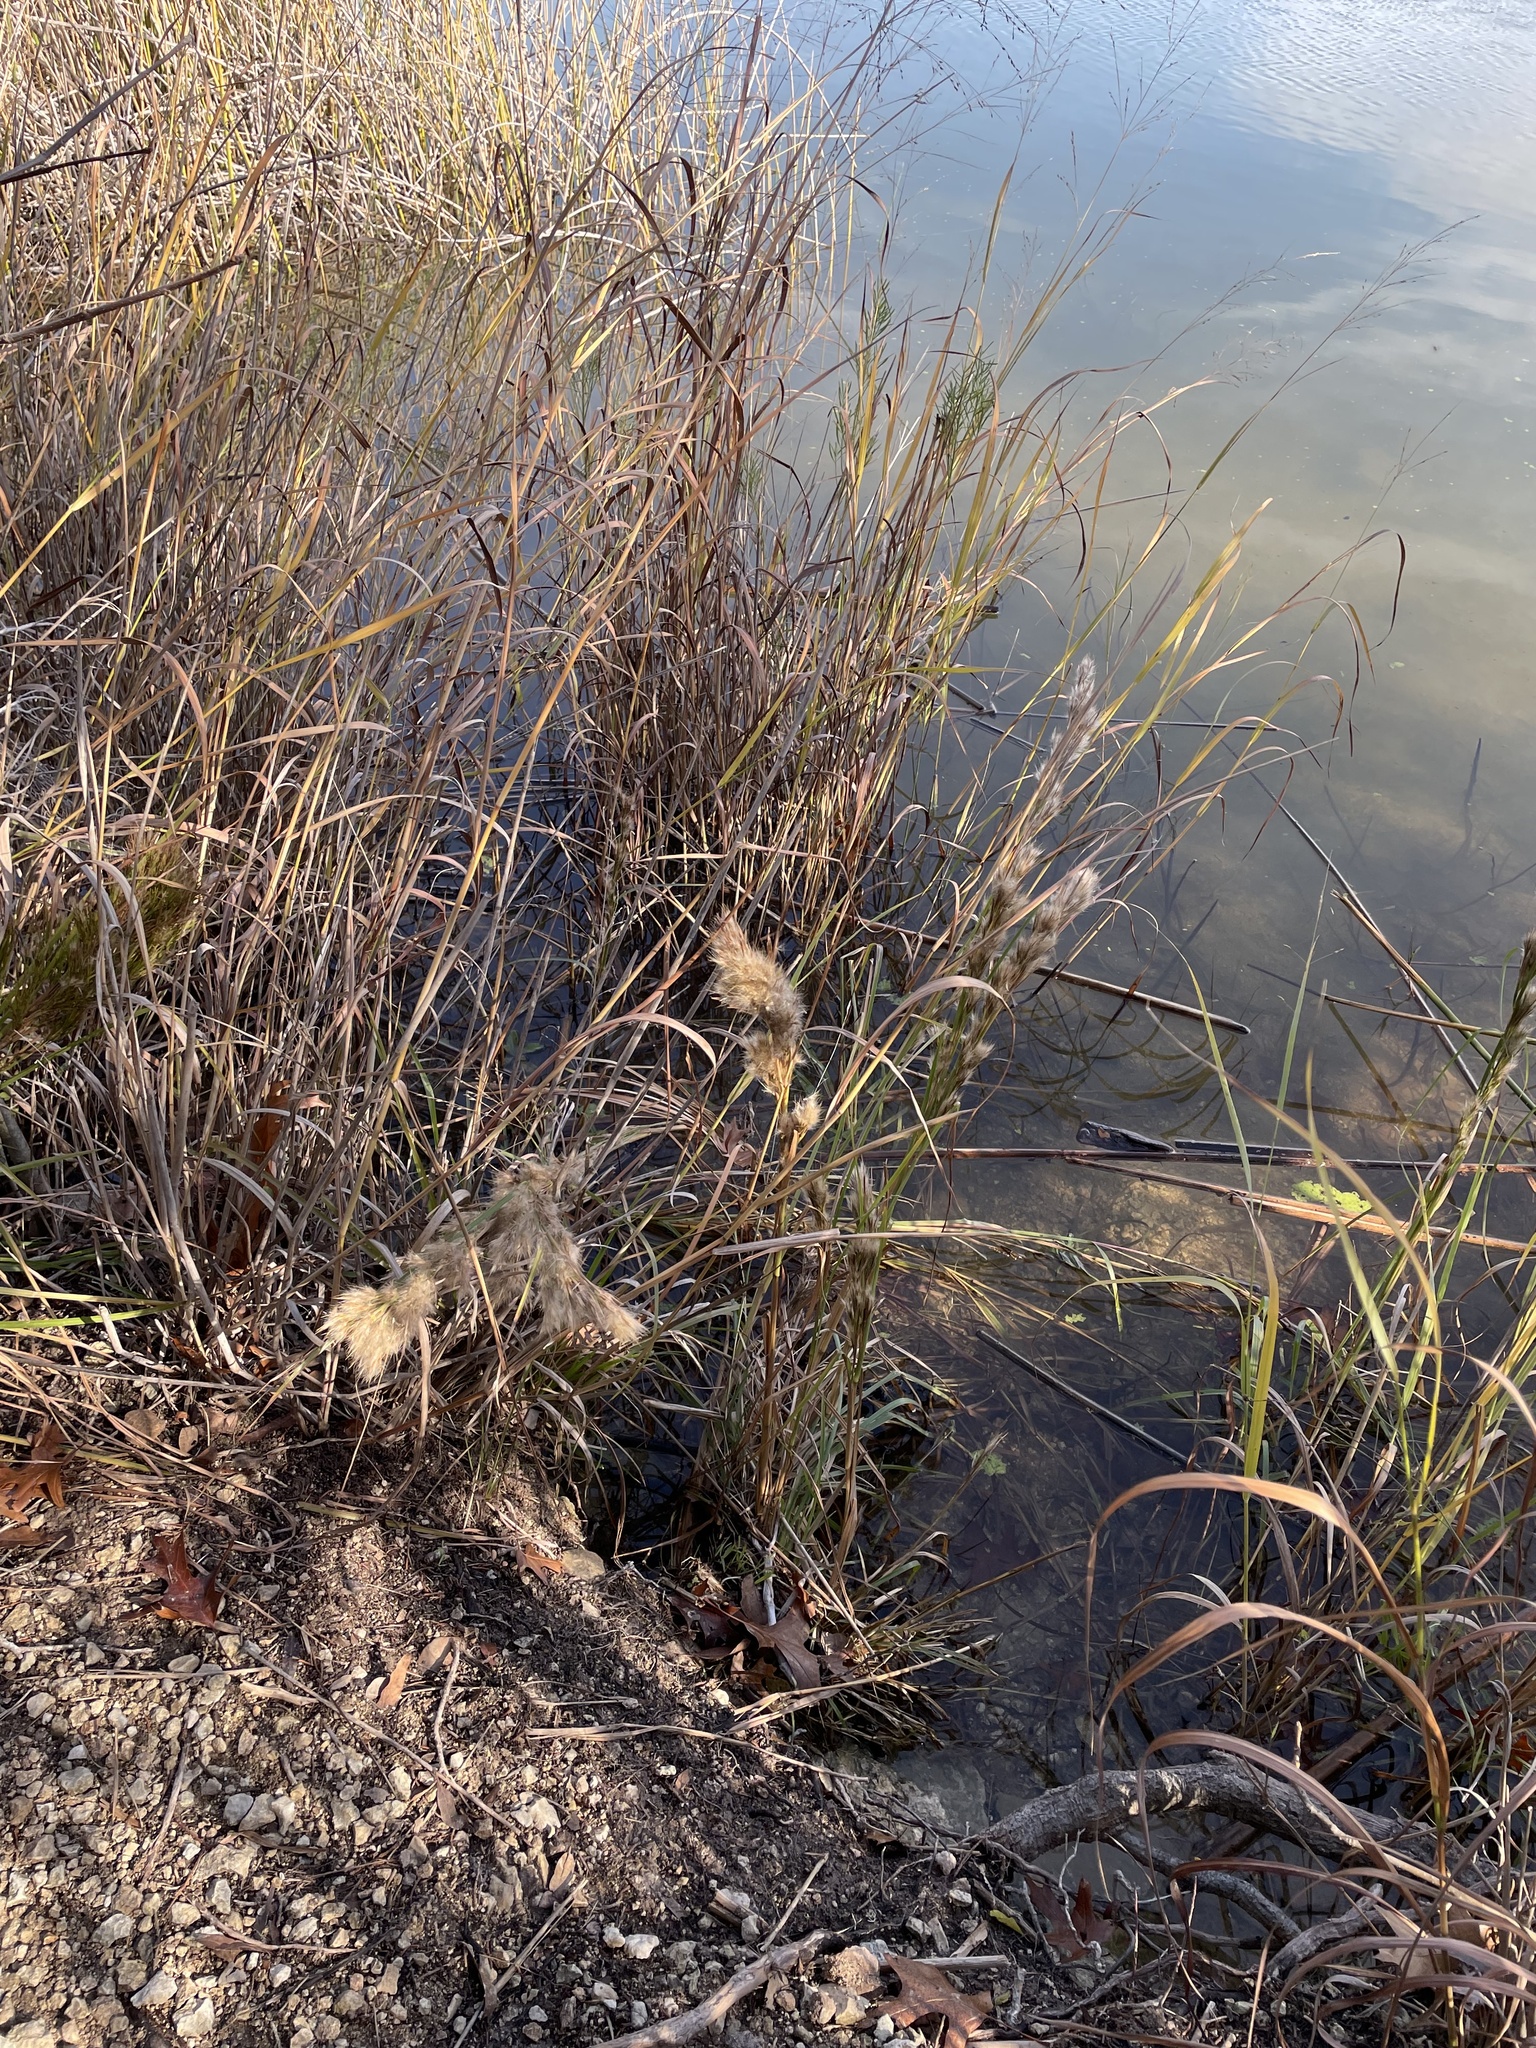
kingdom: Plantae
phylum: Tracheophyta
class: Liliopsida
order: Poales
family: Poaceae
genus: Andropogon
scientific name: Andropogon tenuispatheus
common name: Bushy bluestem
